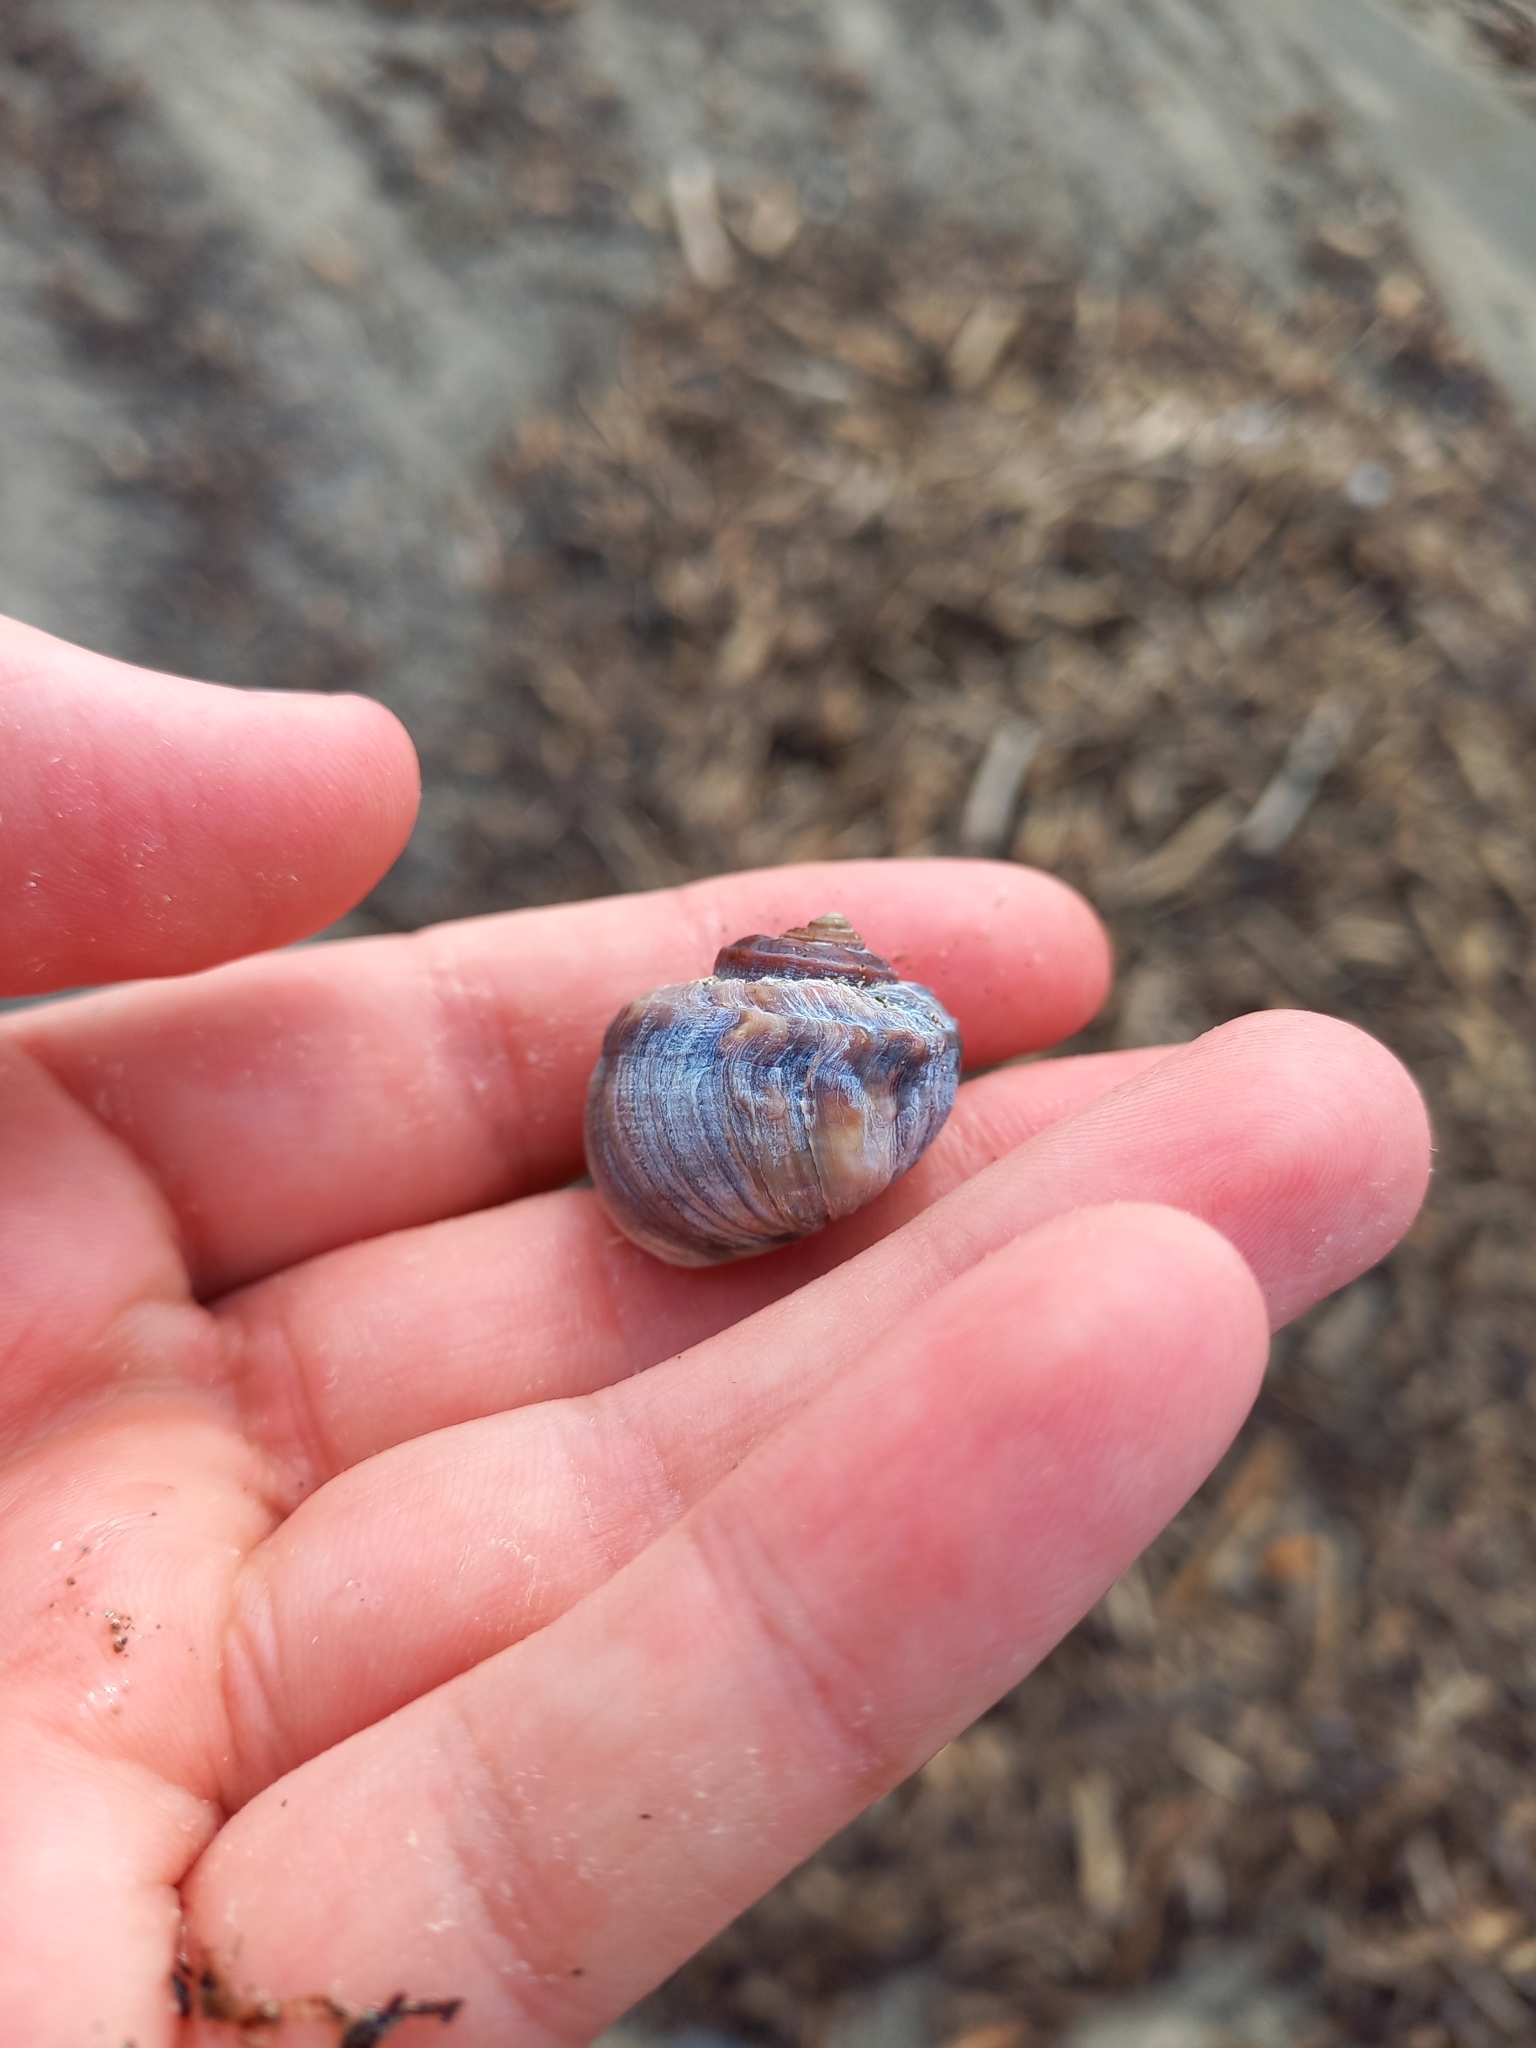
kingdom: Animalia
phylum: Mollusca
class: Gastropoda
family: Amphibolidae
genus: Amphibola
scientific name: Amphibola crenata
